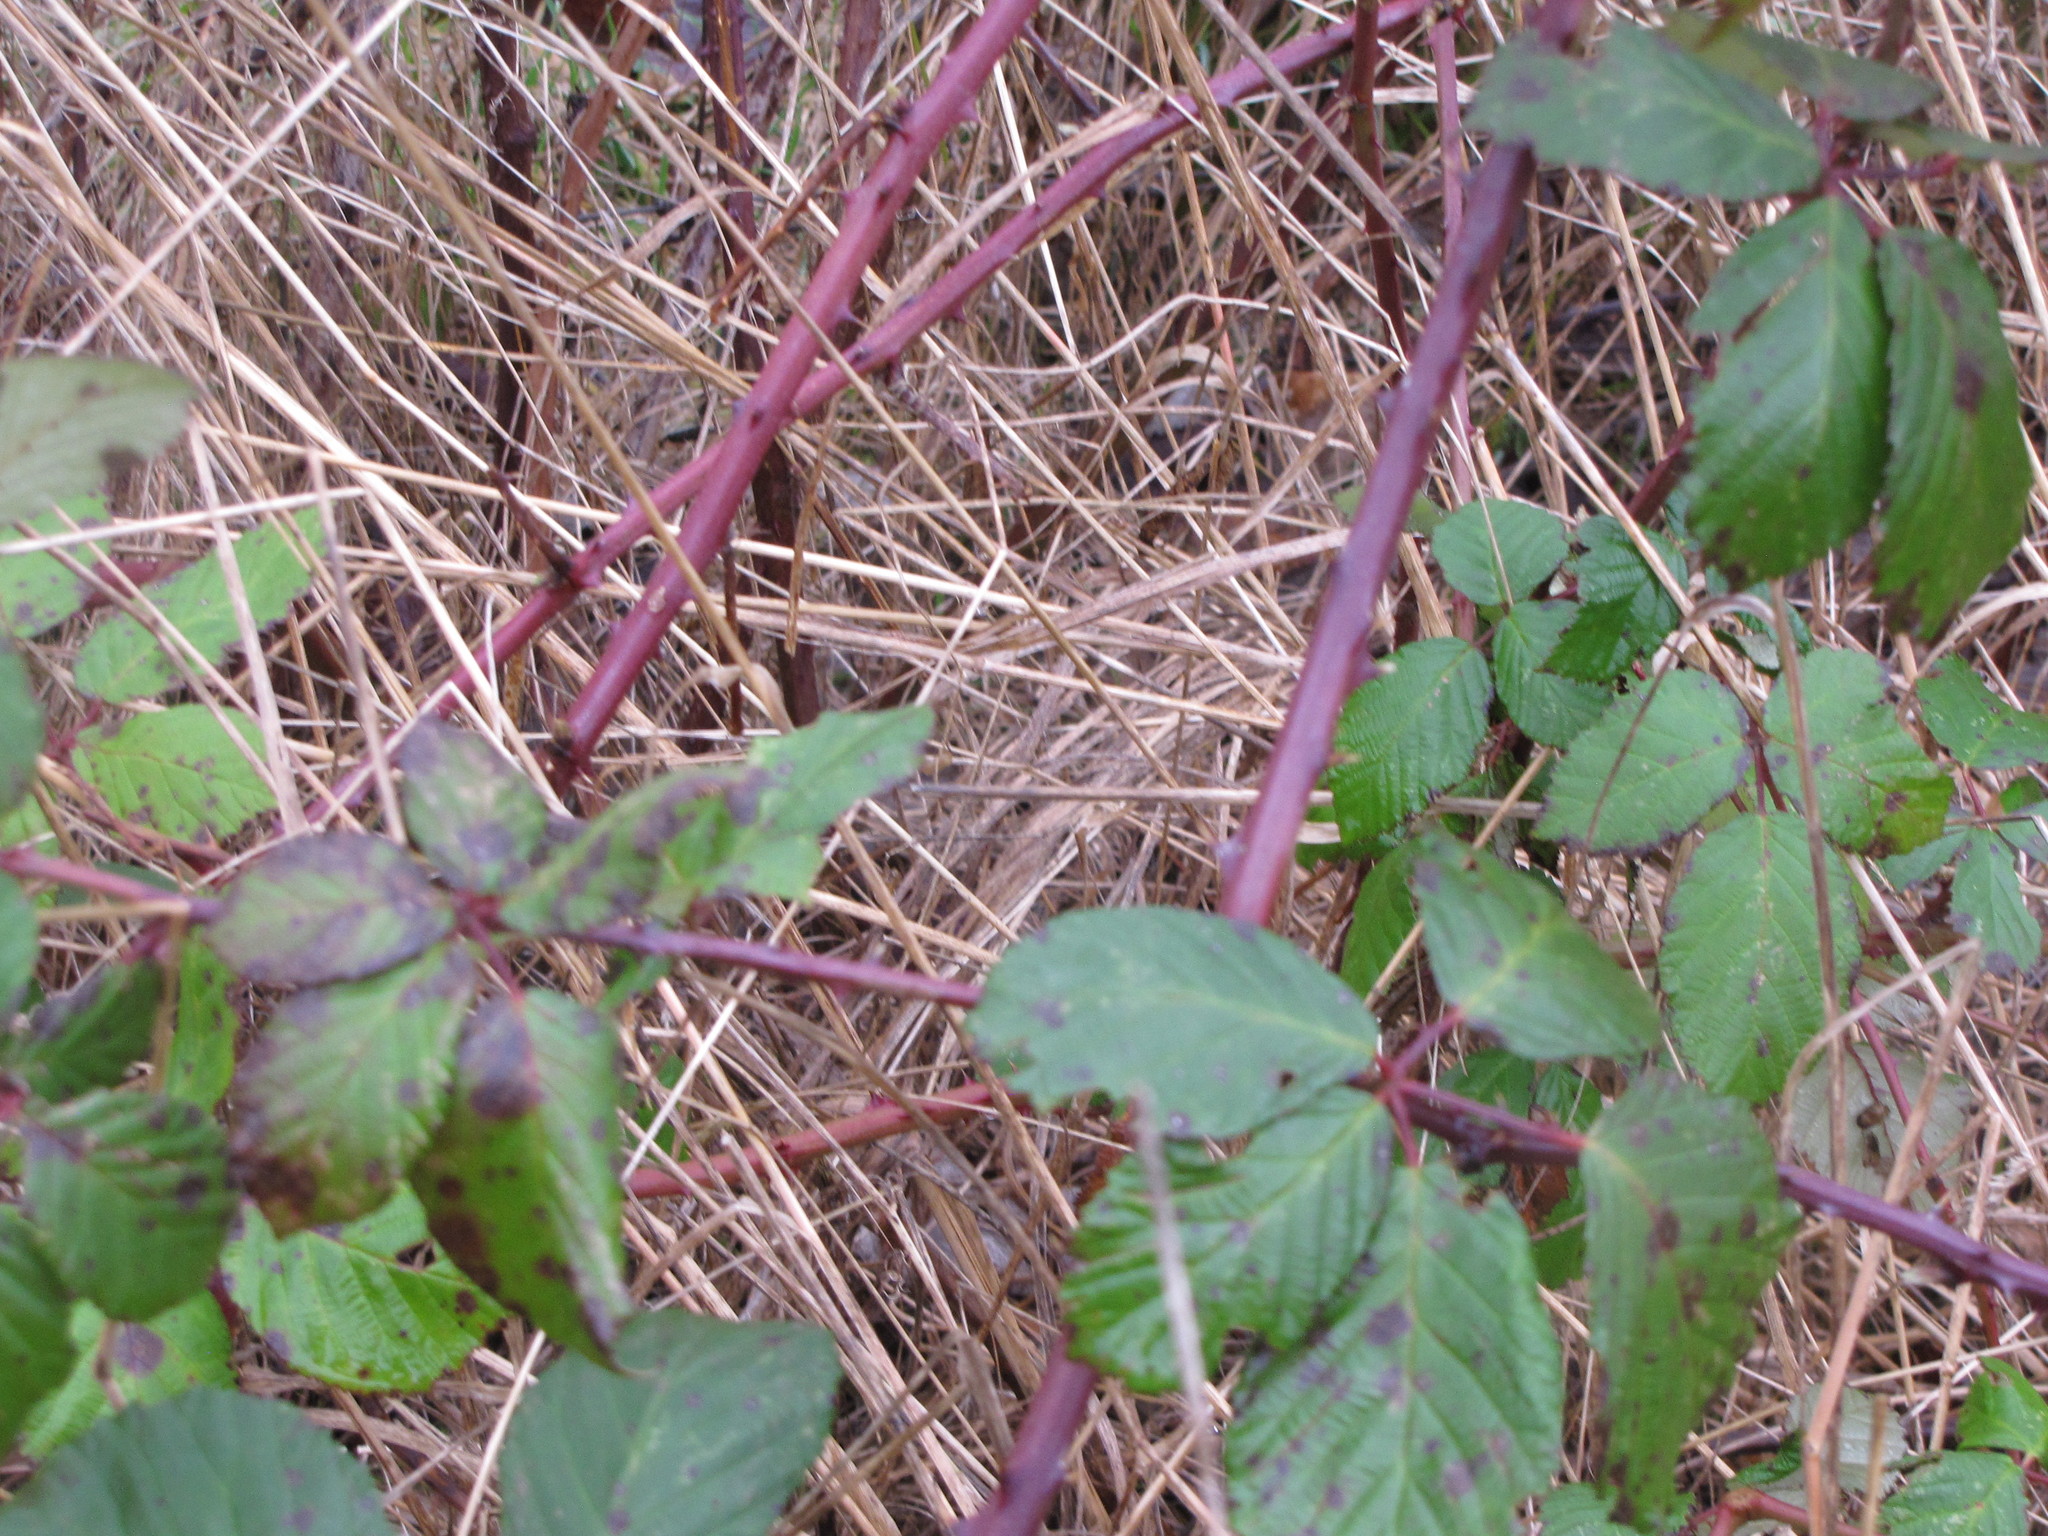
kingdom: Plantae
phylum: Tracheophyta
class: Magnoliopsida
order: Rosales
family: Rosaceae
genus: Rubus
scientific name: Rubus bifrons
